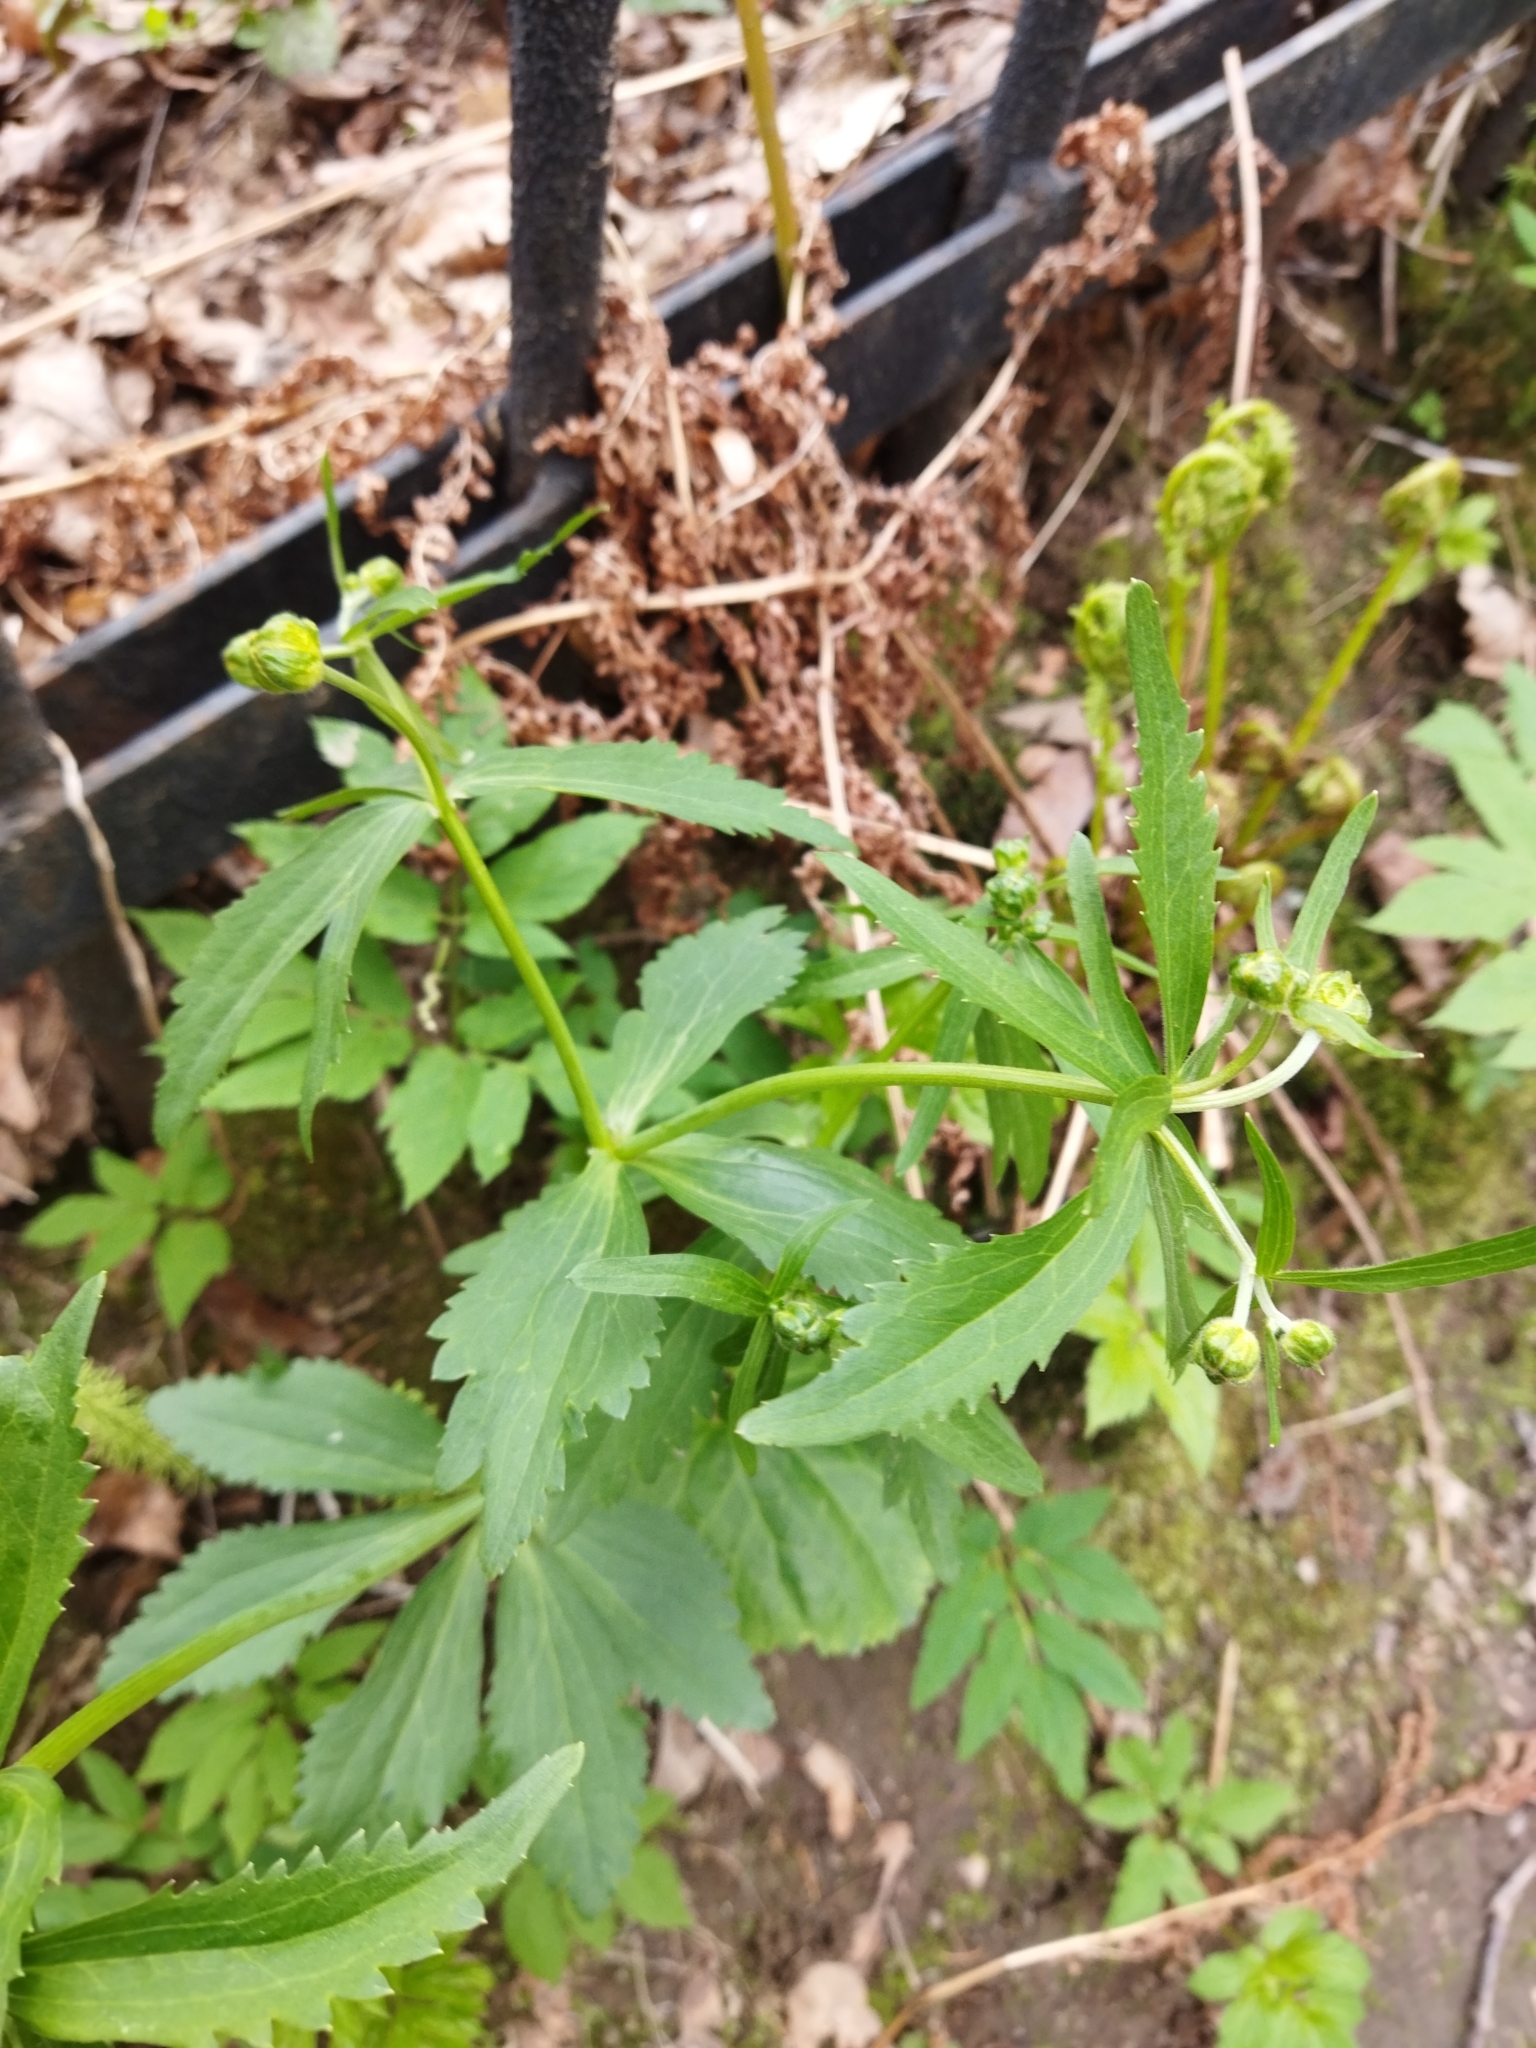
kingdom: Plantae
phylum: Tracheophyta
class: Magnoliopsida
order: Ranunculales
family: Ranunculaceae
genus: Ranunculus
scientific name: Ranunculus cassubicus
